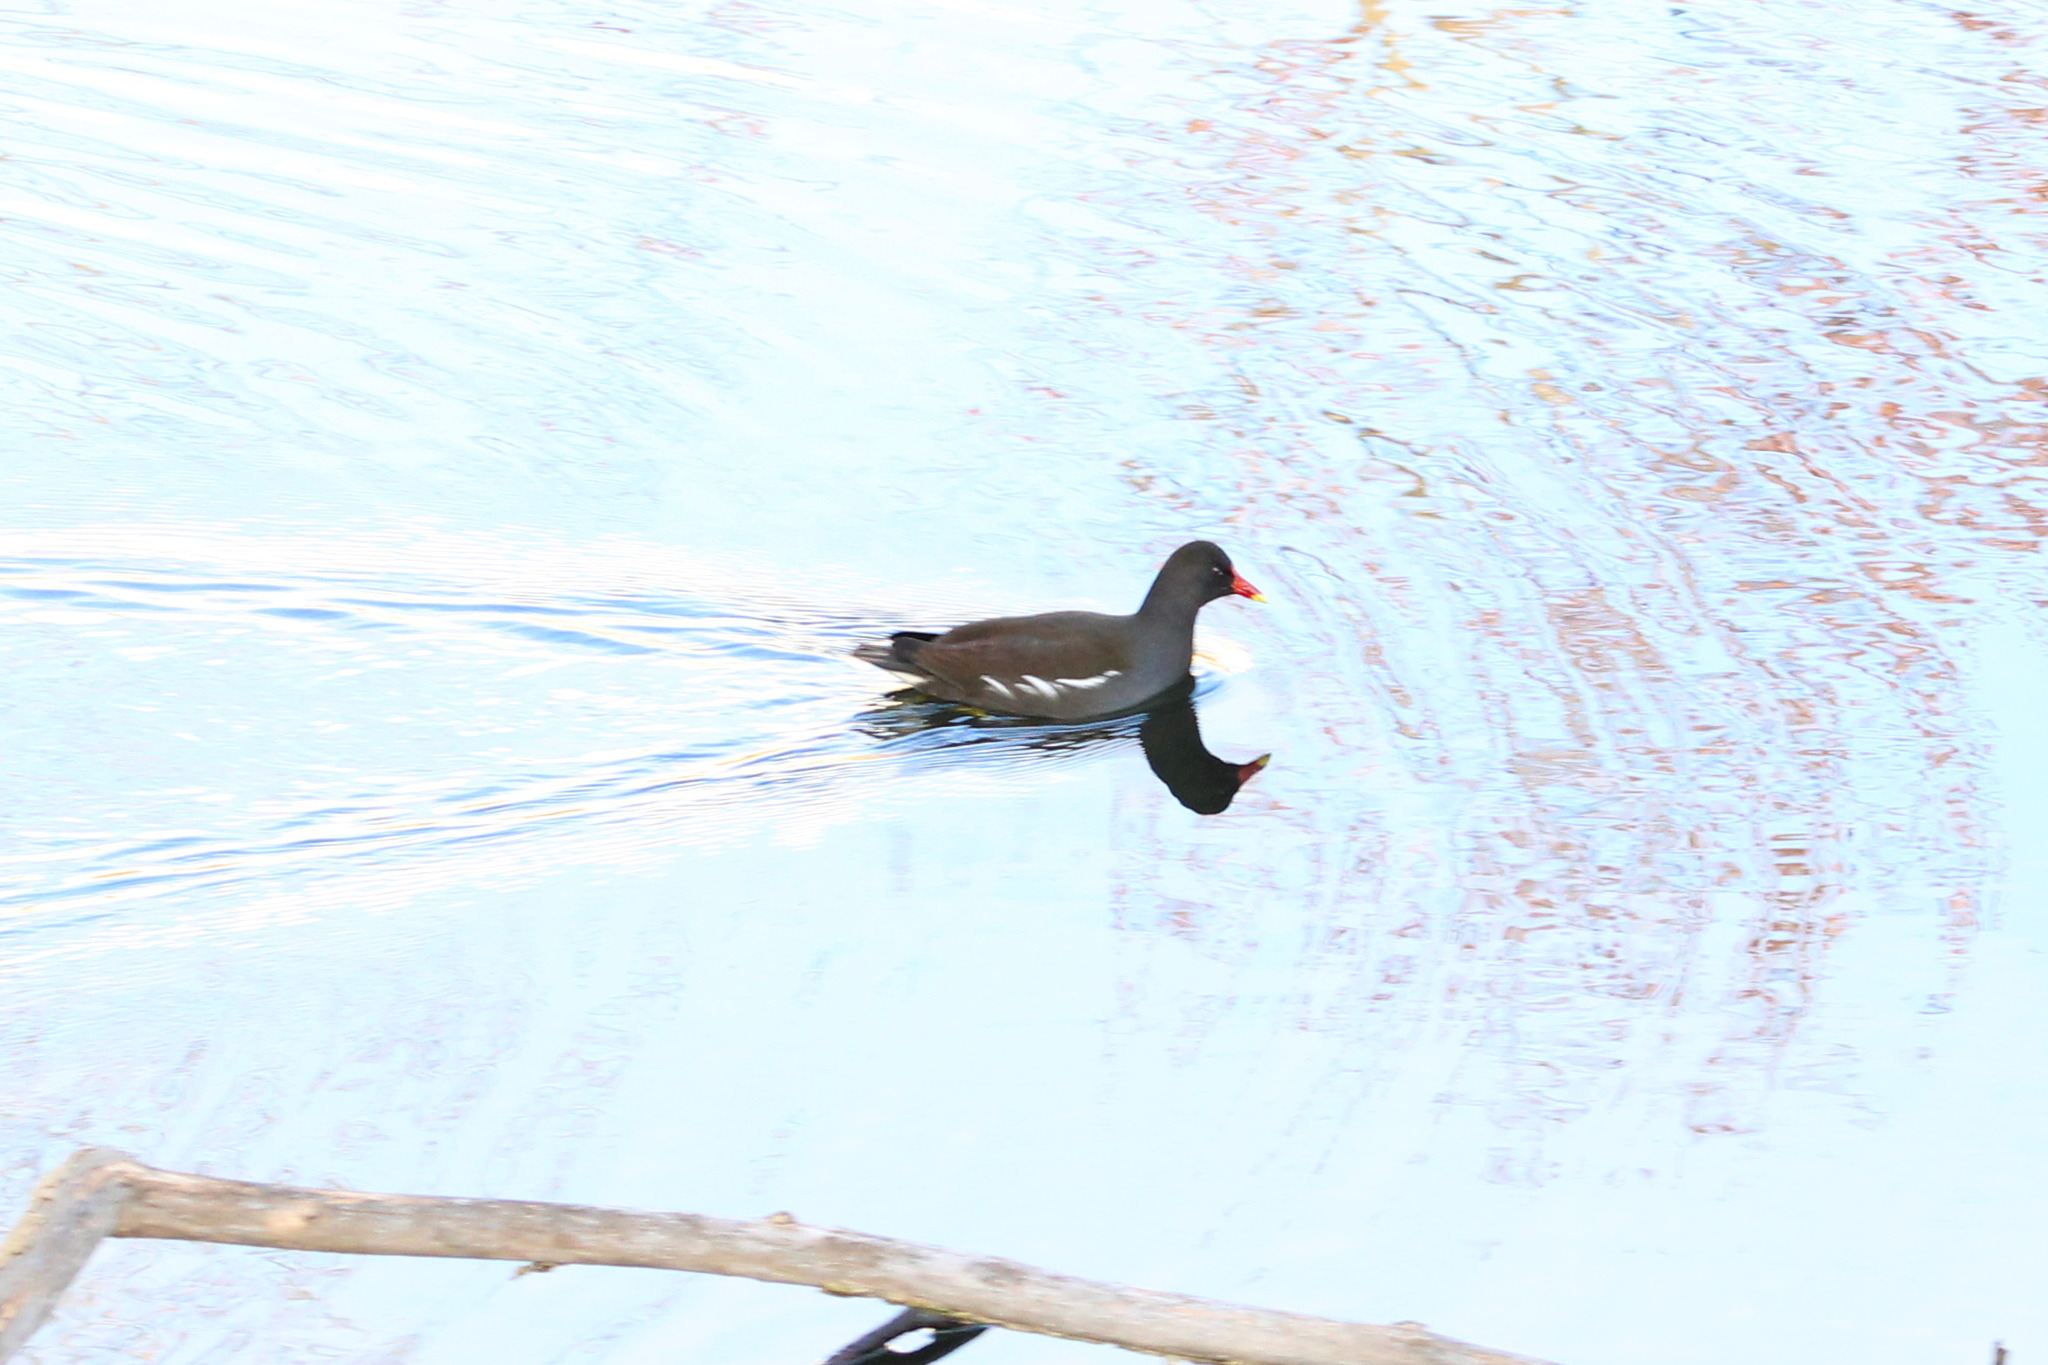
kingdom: Animalia
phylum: Chordata
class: Aves
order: Gruiformes
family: Rallidae
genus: Gallinula
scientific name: Gallinula chloropus
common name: Common moorhen
